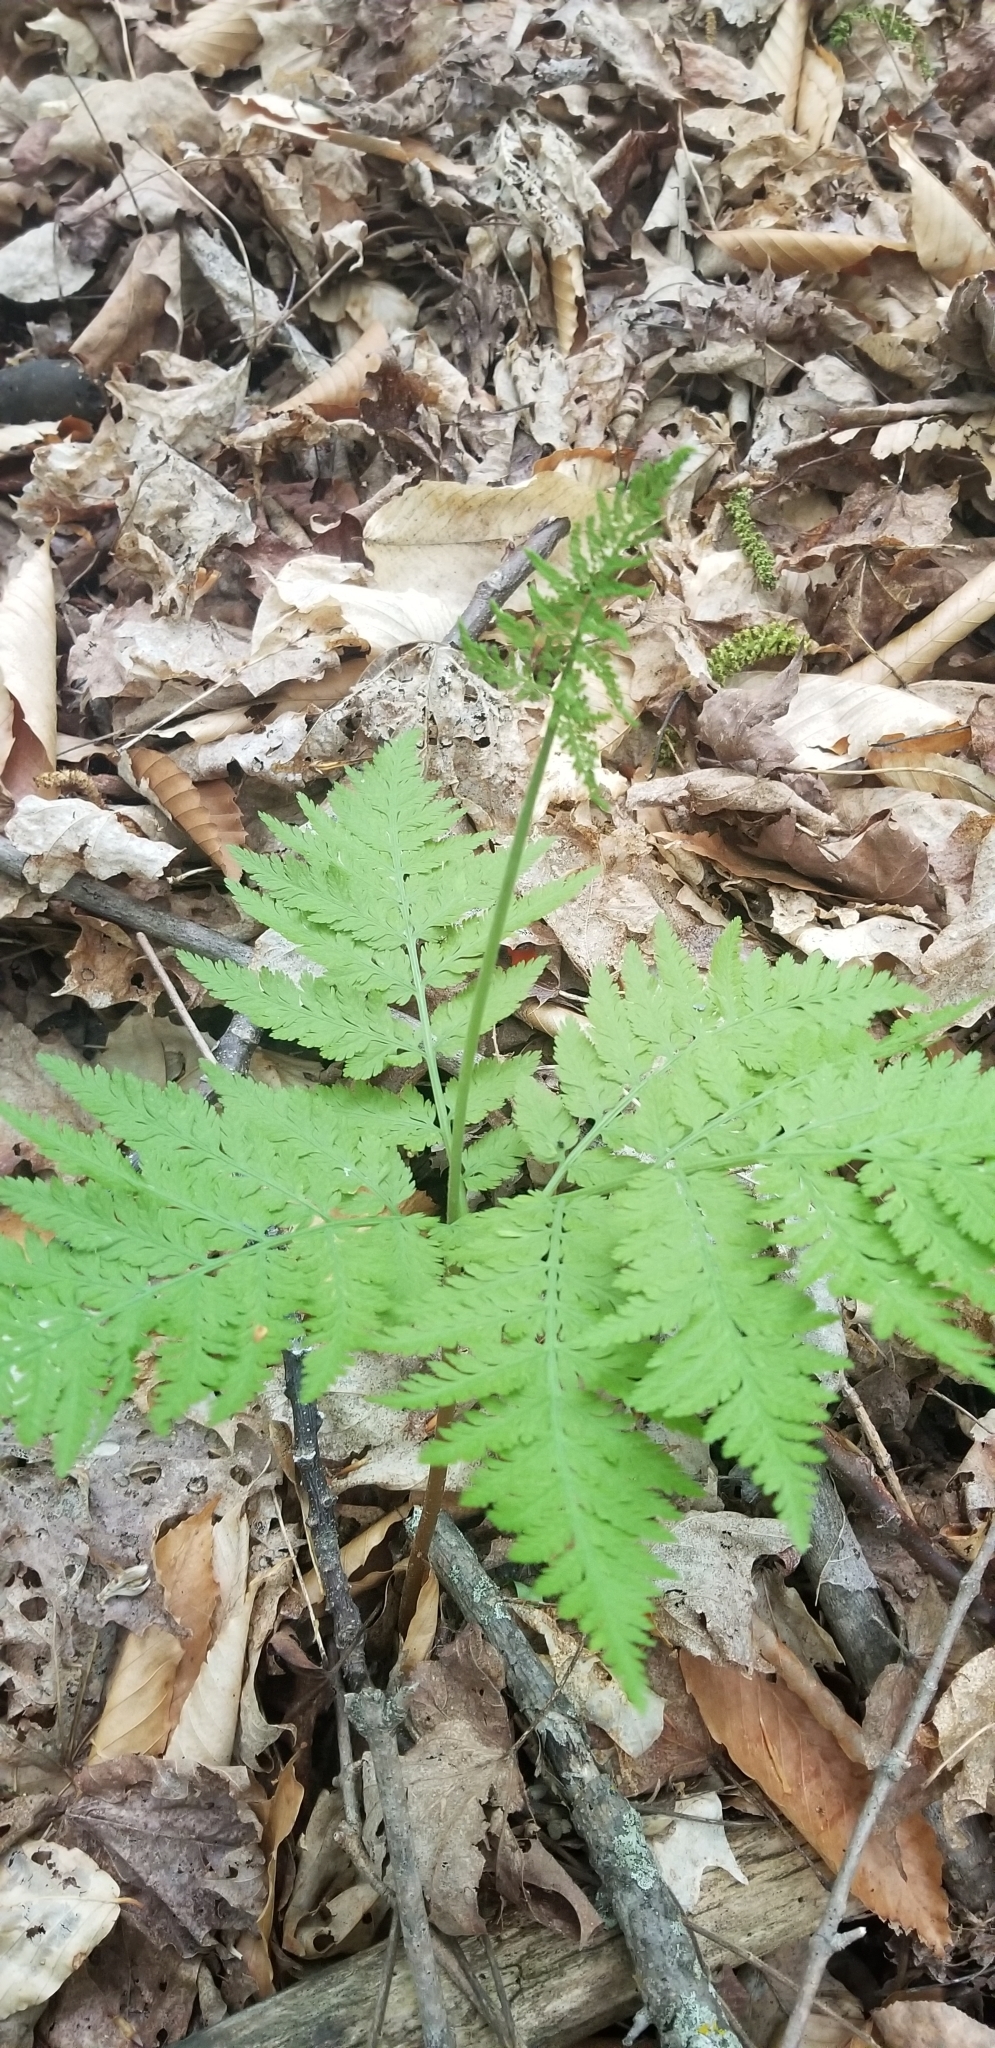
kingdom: Plantae
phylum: Tracheophyta
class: Polypodiopsida
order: Ophioglossales
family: Ophioglossaceae
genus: Botrypus
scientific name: Botrypus virginianus
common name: Common grapefern
